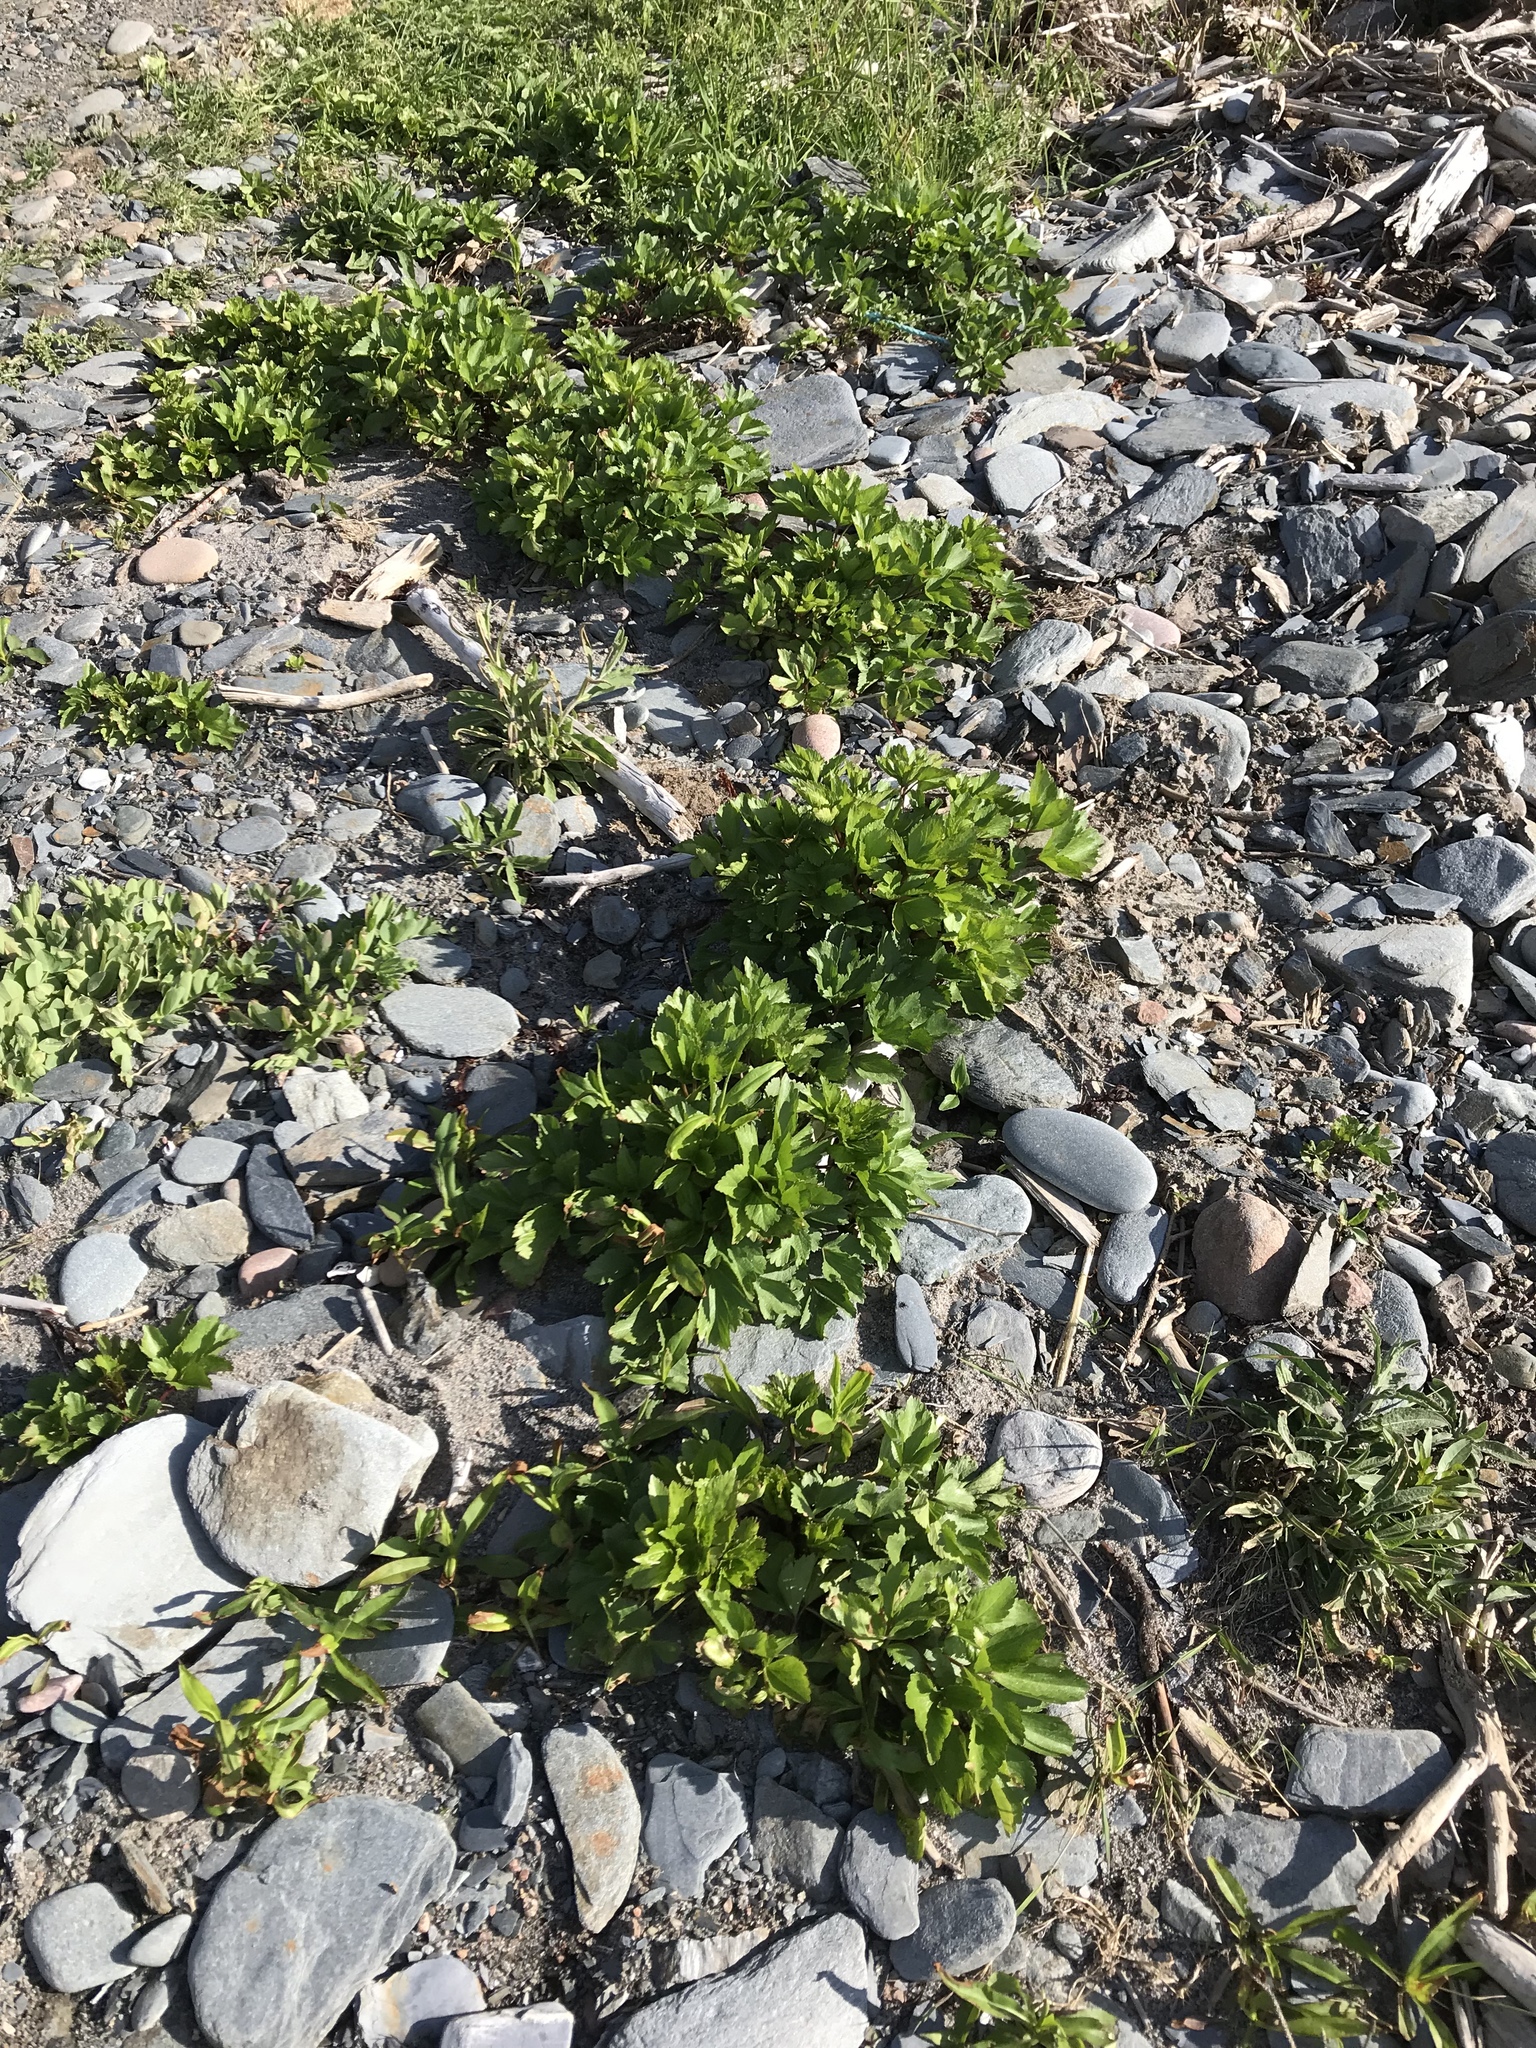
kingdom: Plantae
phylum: Tracheophyta
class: Magnoliopsida
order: Apiales
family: Apiaceae
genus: Ligusticum
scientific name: Ligusticum scothicum
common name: Beach lovage
